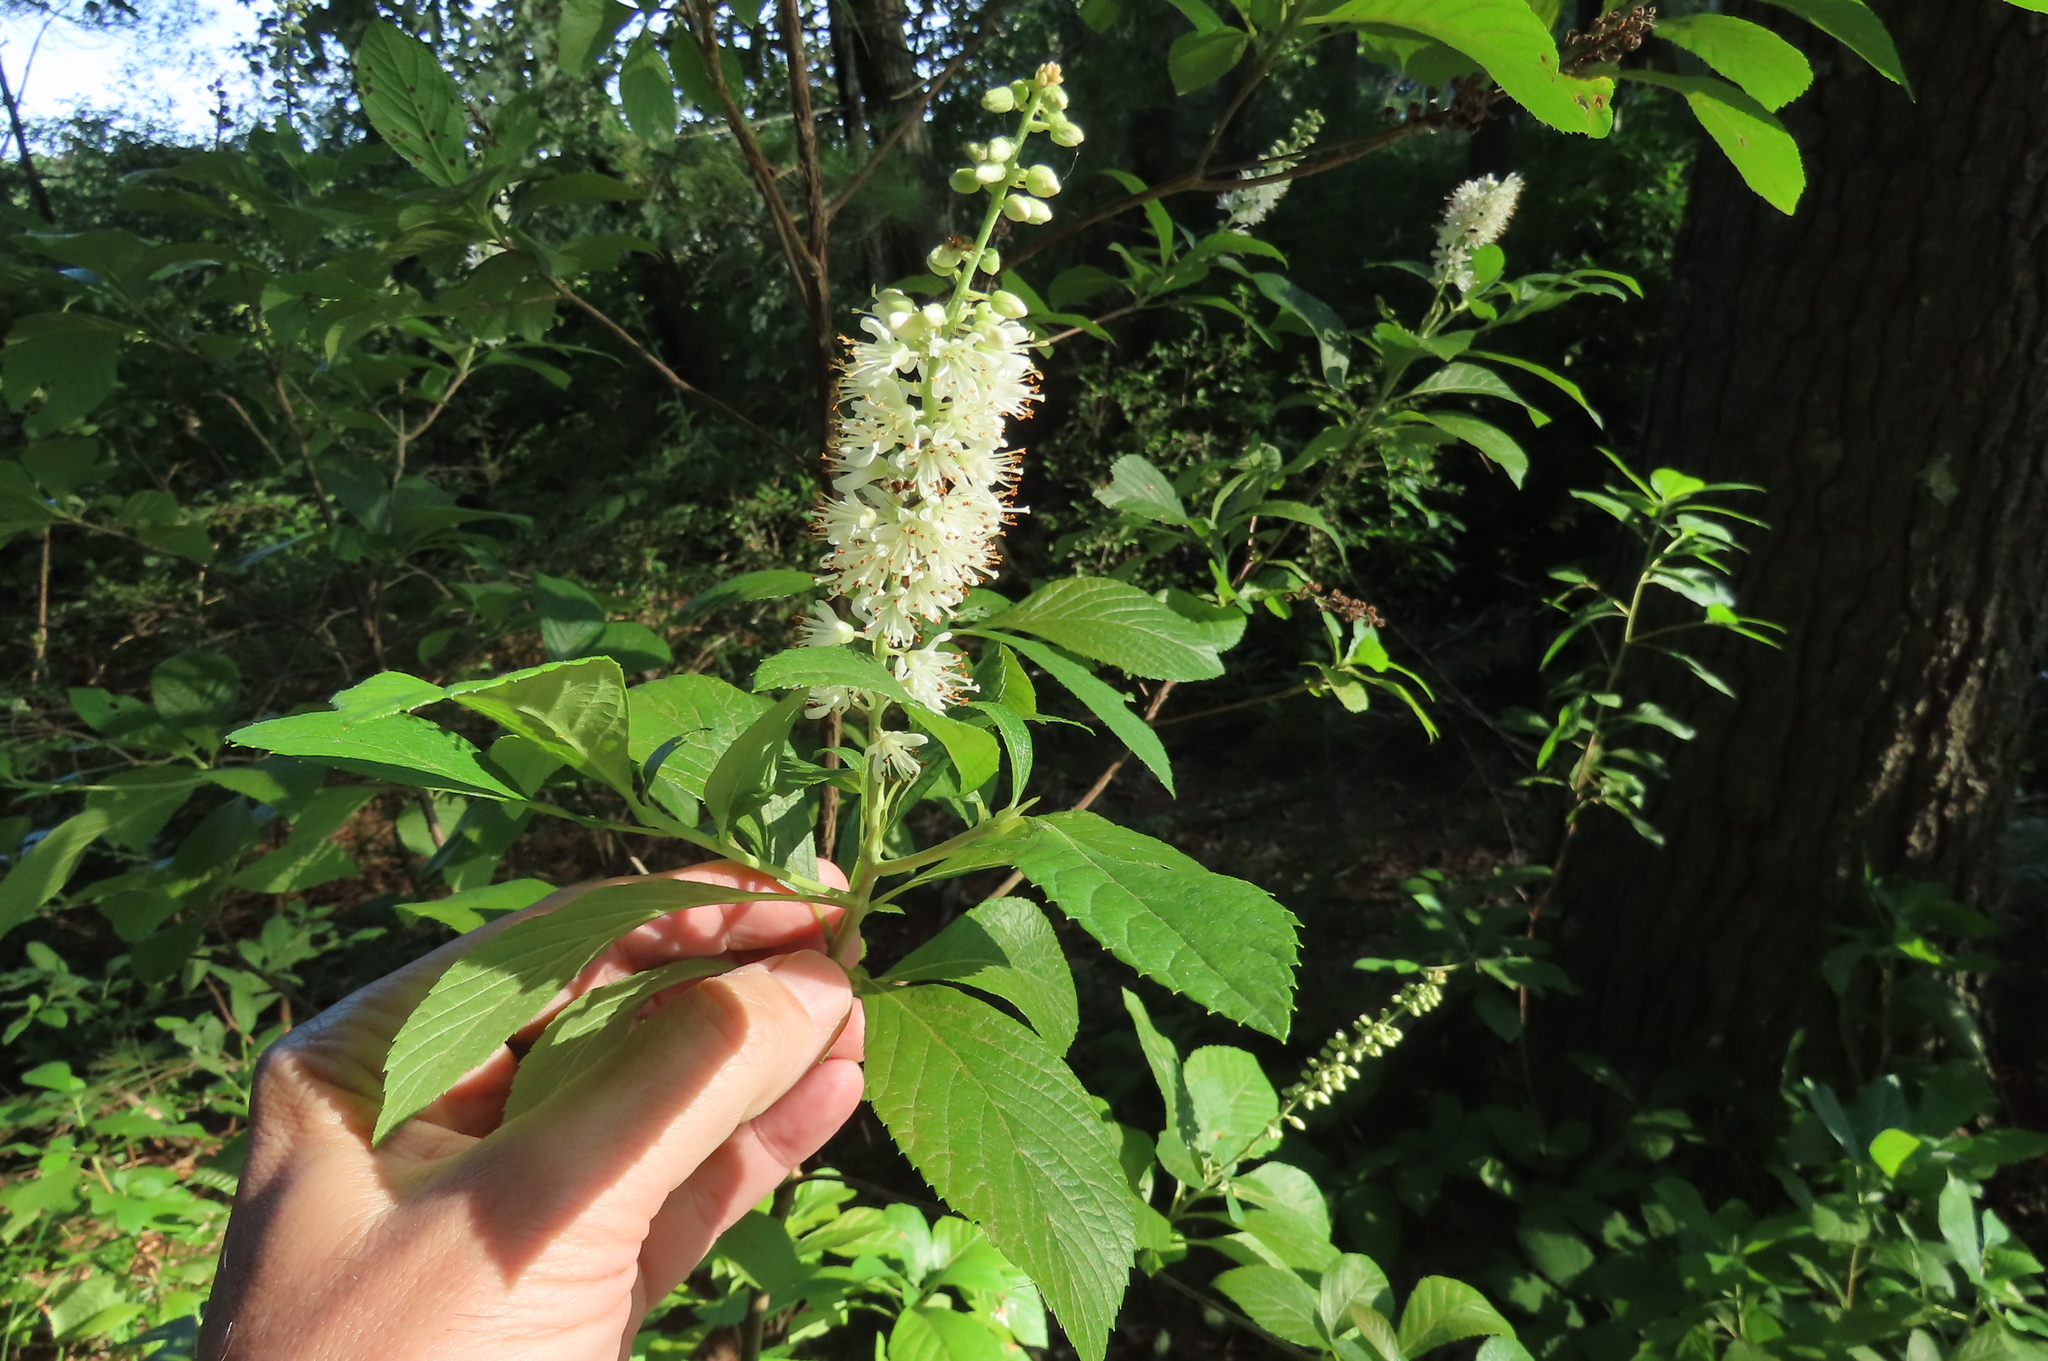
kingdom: Plantae
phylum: Tracheophyta
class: Magnoliopsida
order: Ericales
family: Clethraceae
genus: Clethra
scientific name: Clethra alnifolia
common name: Sweet pepperbush
